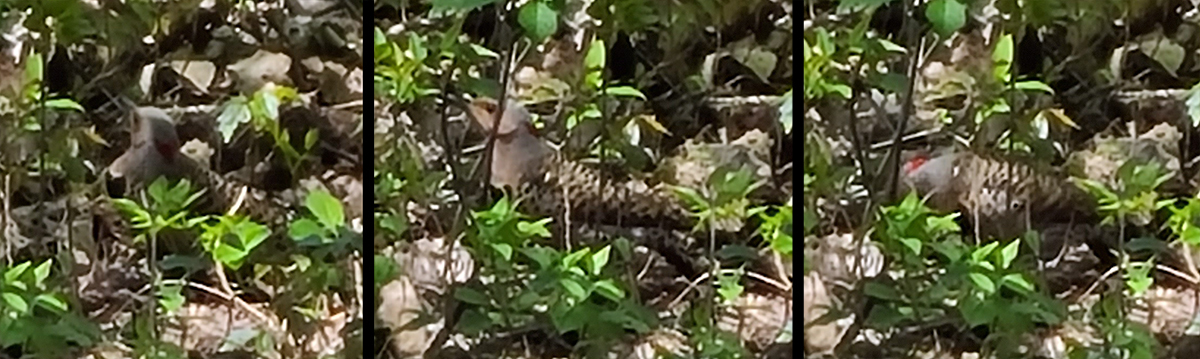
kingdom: Animalia
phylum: Chordata
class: Aves
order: Piciformes
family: Picidae
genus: Colaptes
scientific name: Colaptes auratus
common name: Northern flicker
